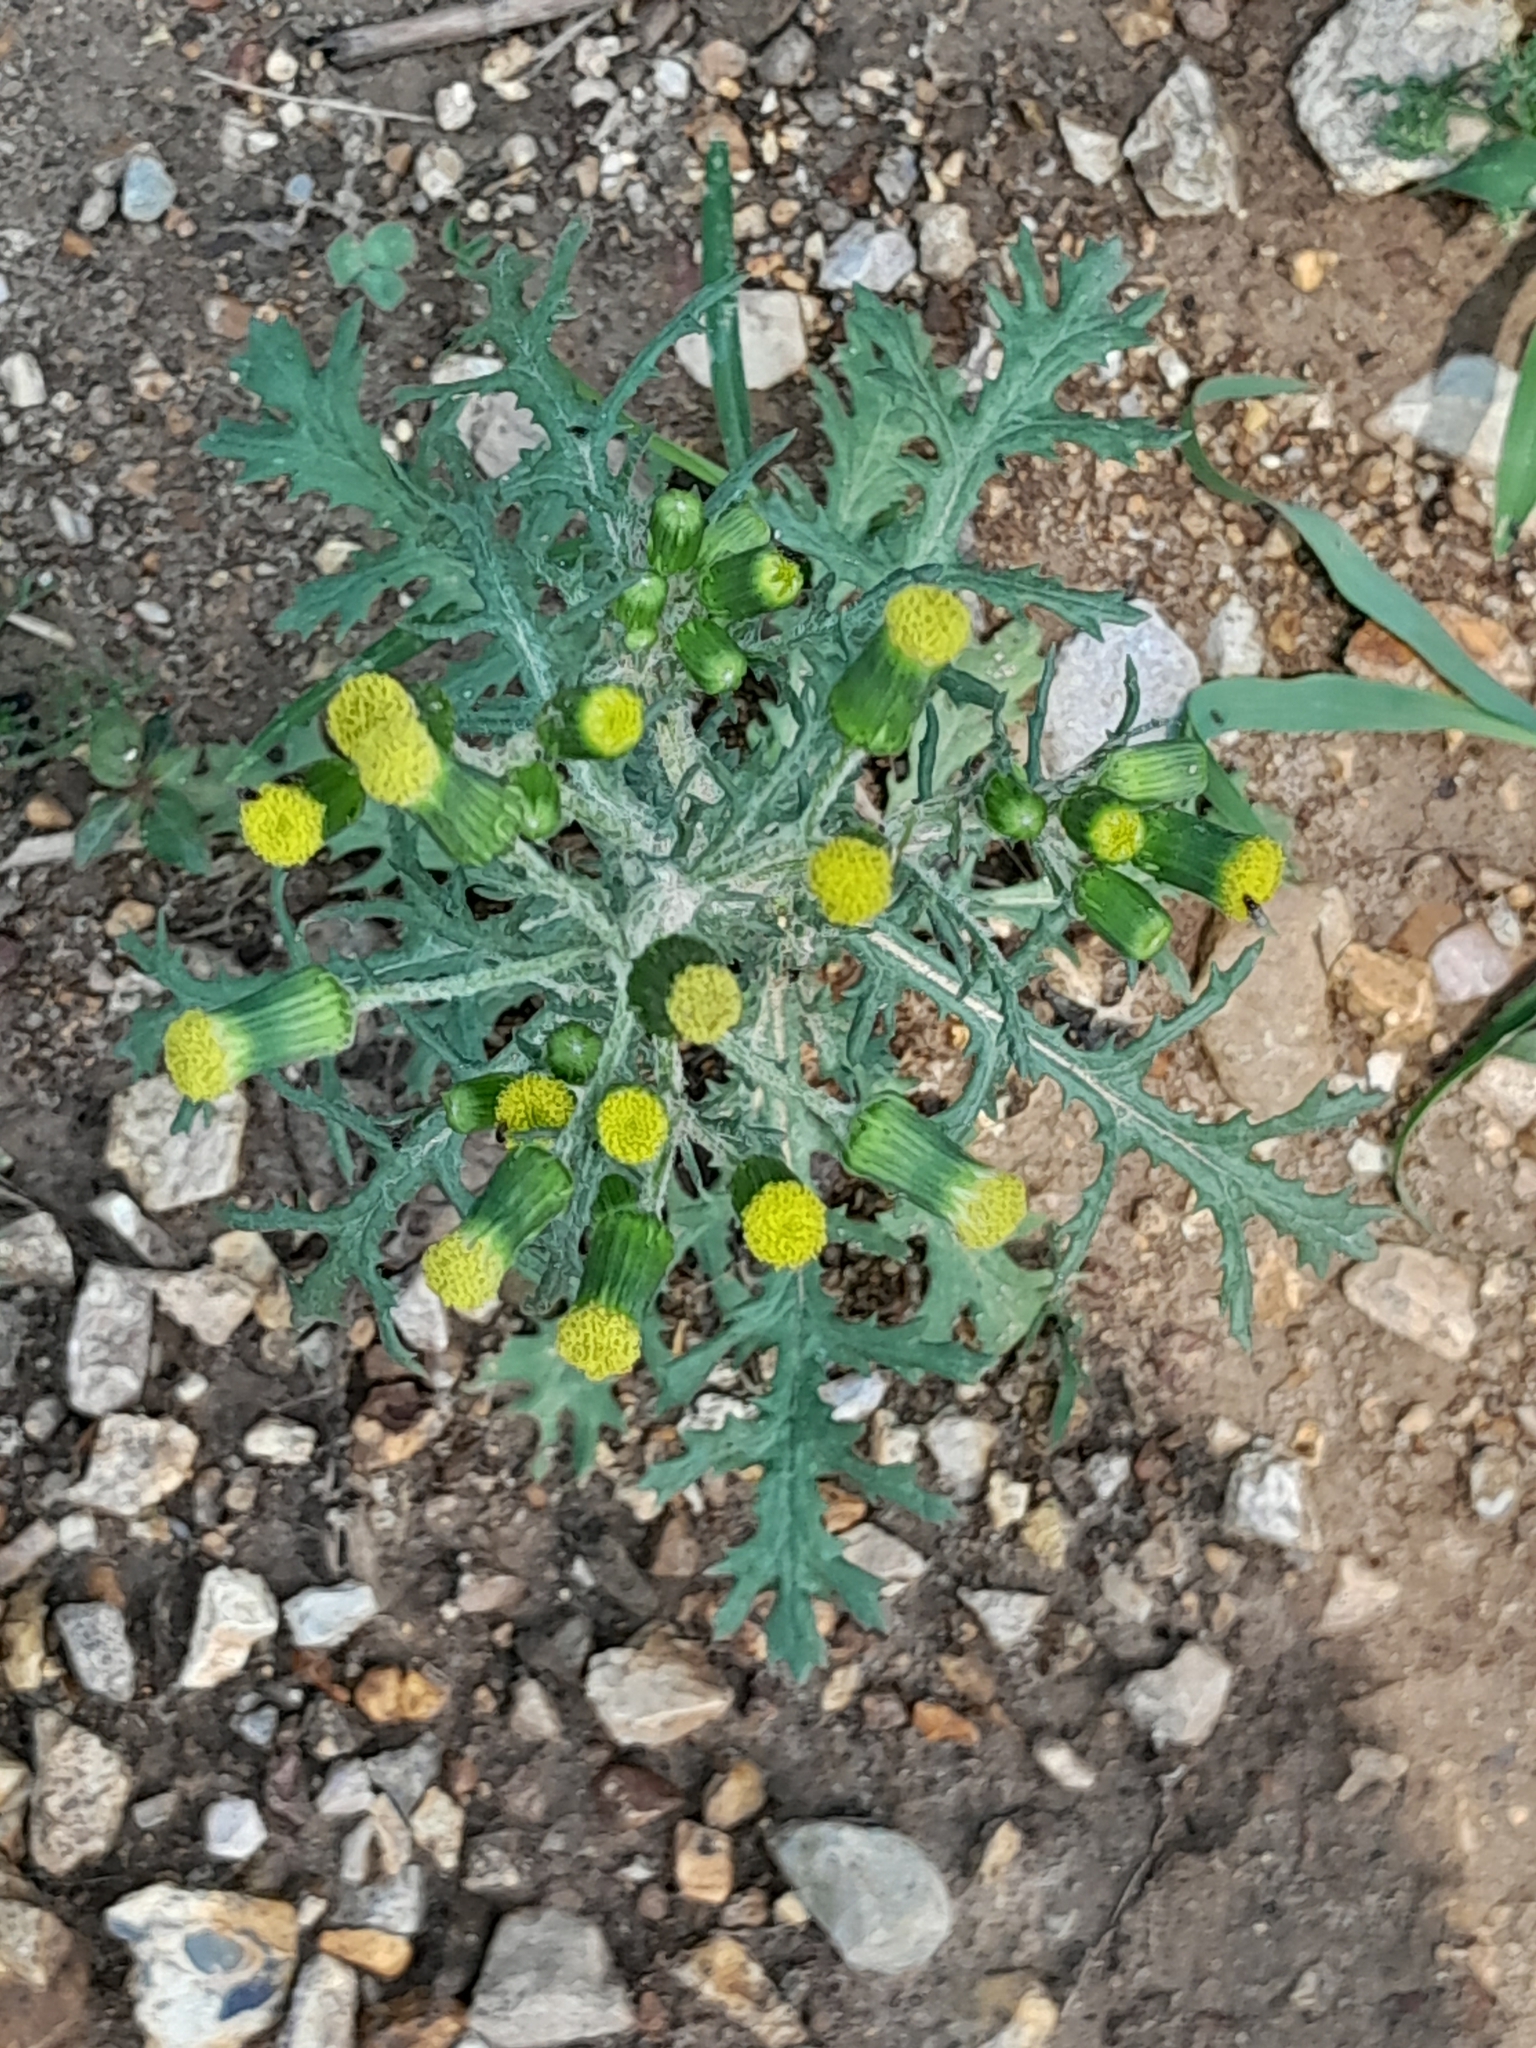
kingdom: Plantae
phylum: Tracheophyta
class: Magnoliopsida
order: Asterales
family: Asteraceae
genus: Senecio
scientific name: Senecio vulgaris
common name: Old-man-in-the-spring
